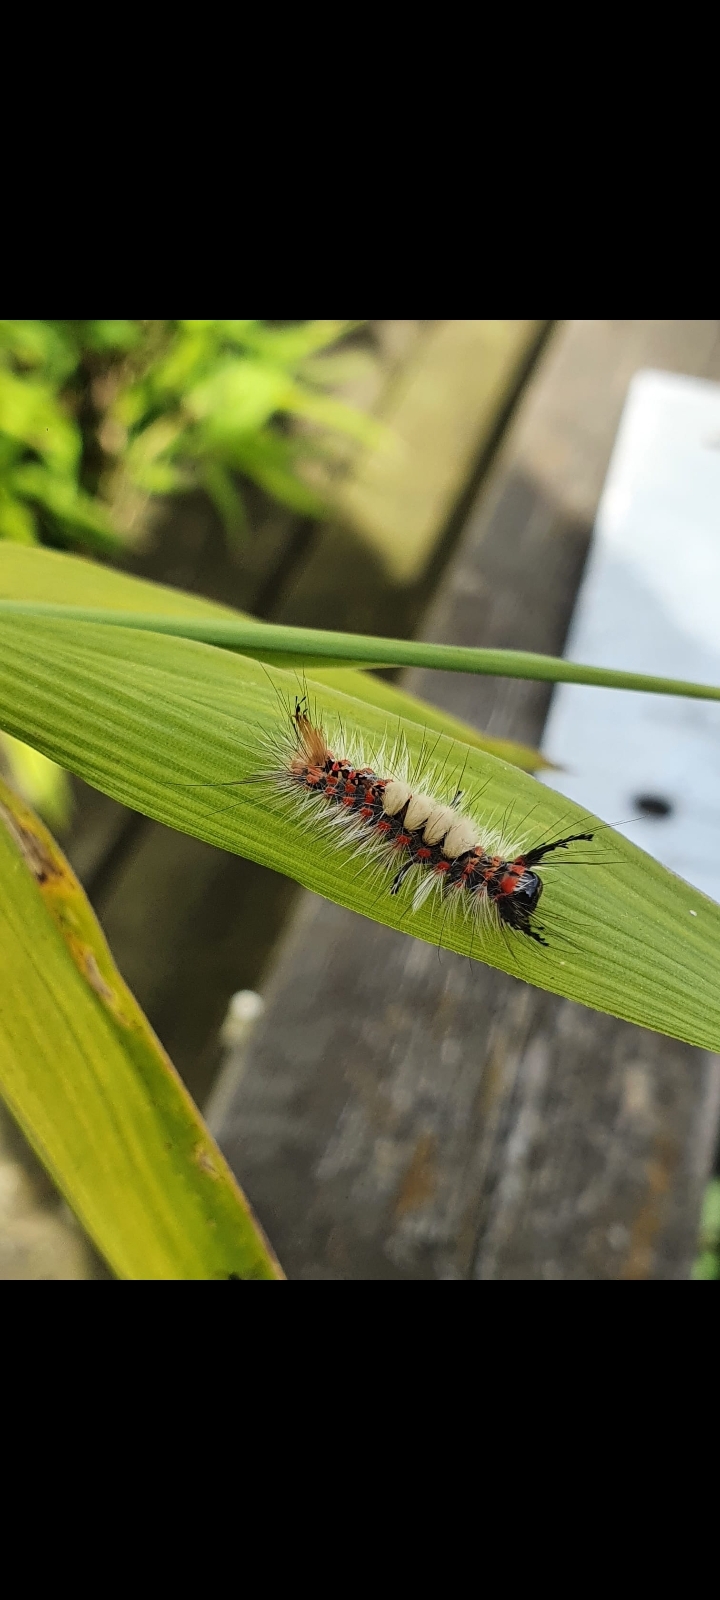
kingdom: Animalia
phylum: Arthropoda
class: Insecta
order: Lepidoptera
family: Erebidae
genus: Orgyia
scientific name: Orgyia antiqua
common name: Vapourer
